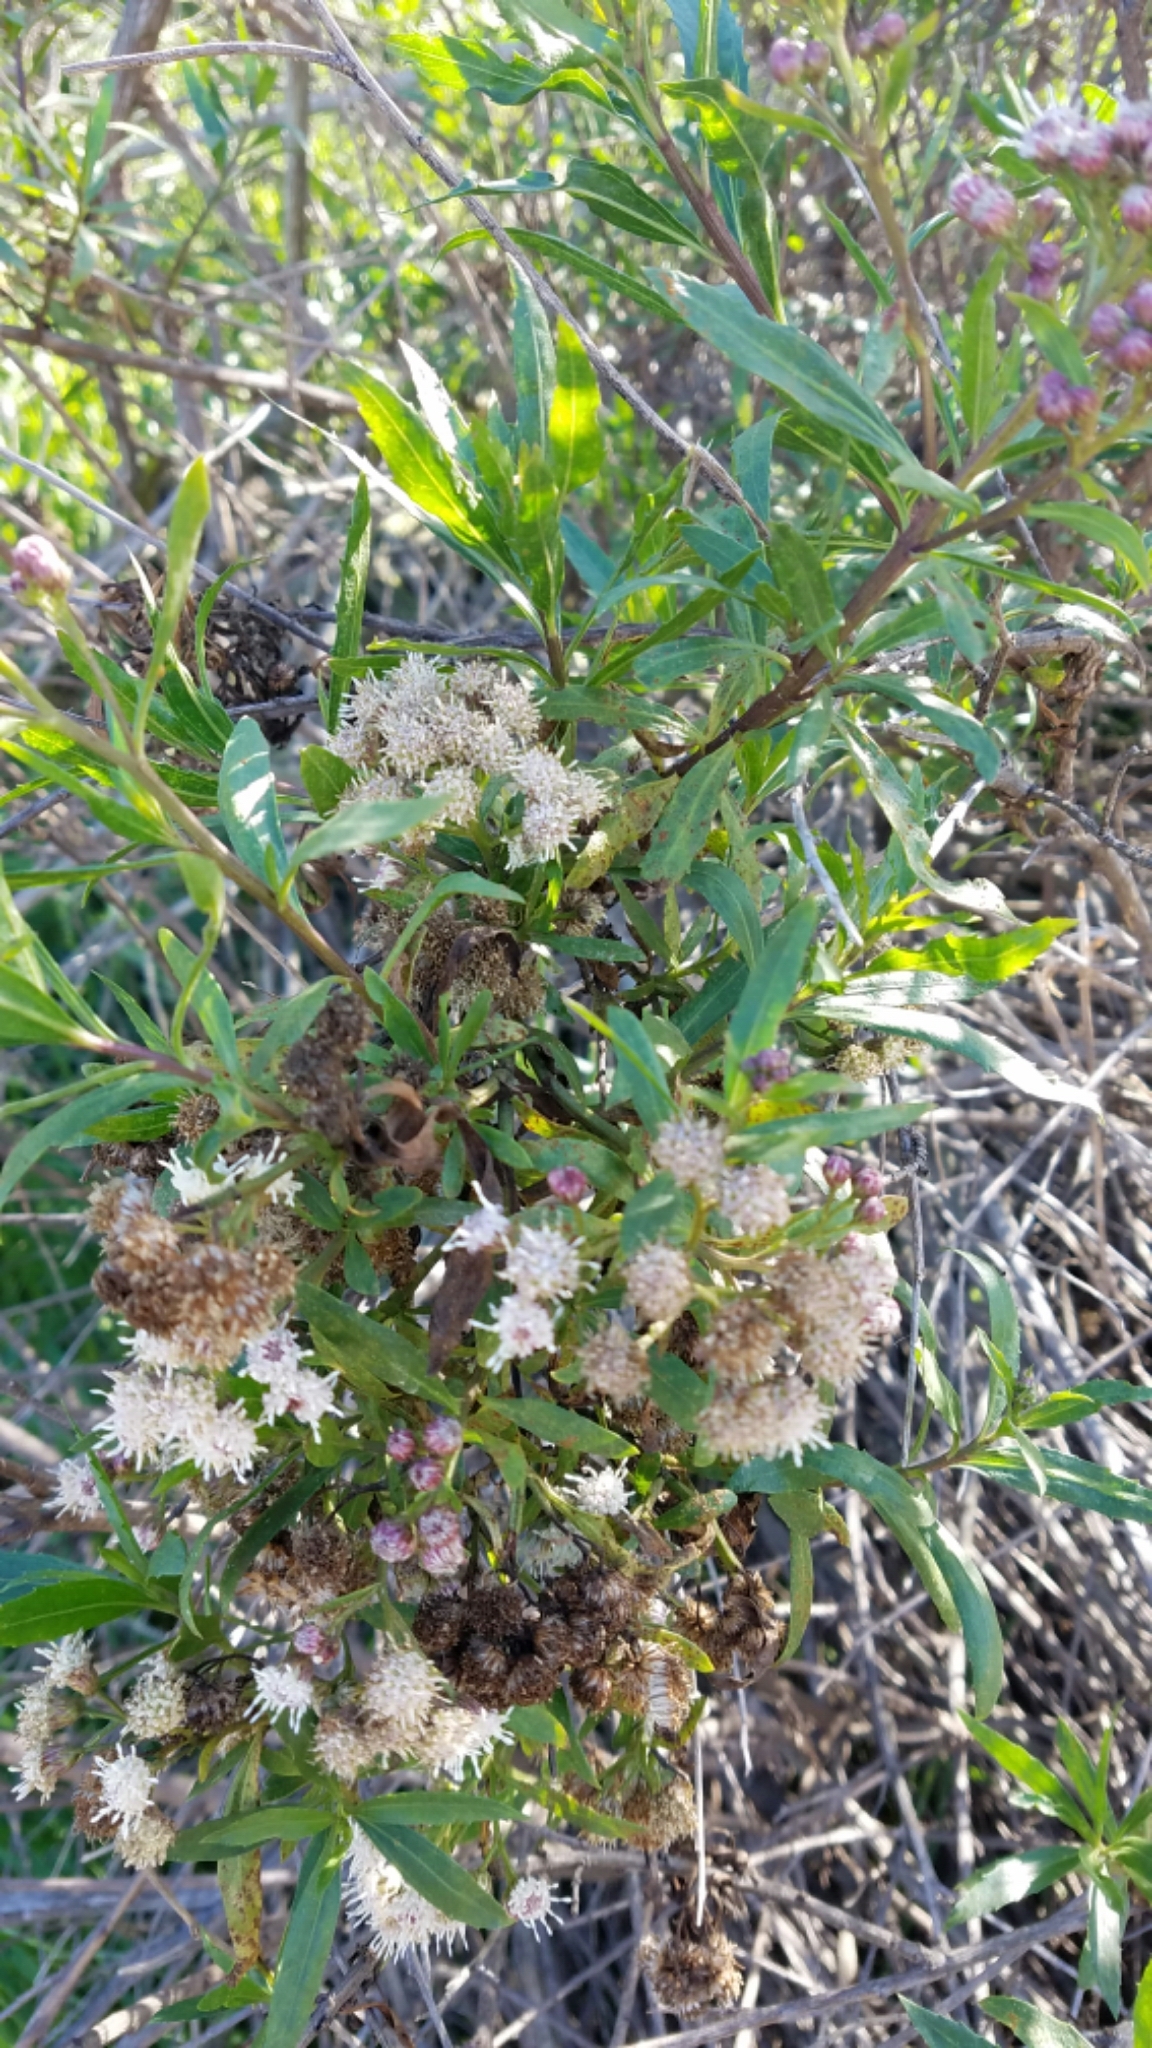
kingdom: Plantae
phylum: Tracheophyta
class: Magnoliopsida
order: Asterales
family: Asteraceae
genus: Baccharis
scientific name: Baccharis salicifolia
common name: Sticky baccharis
